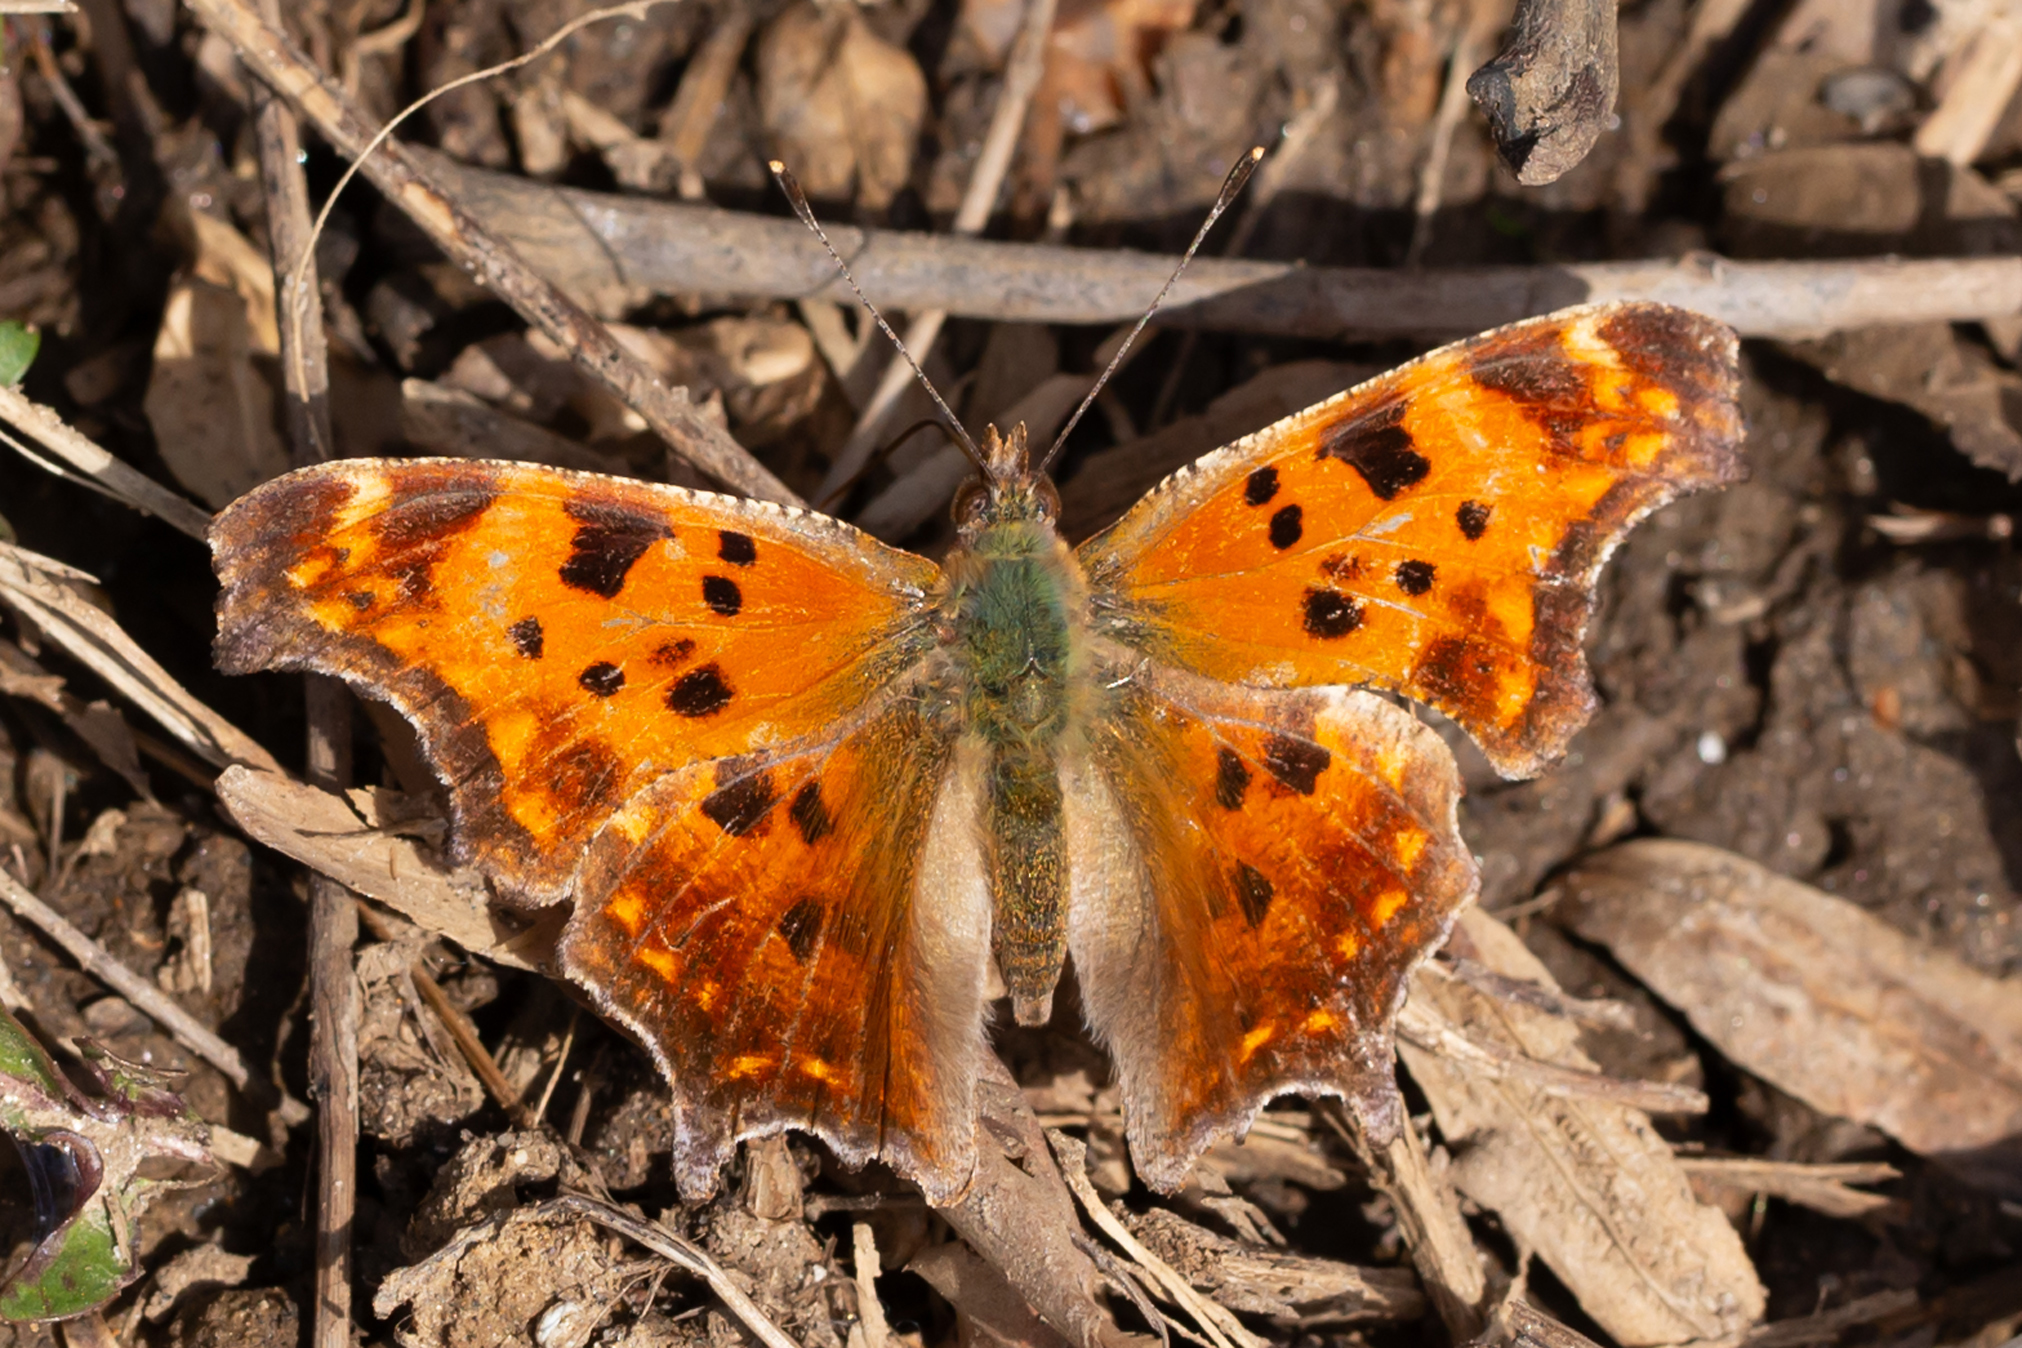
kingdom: Animalia
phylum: Arthropoda
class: Insecta
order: Lepidoptera
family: Nymphalidae
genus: Polygonia
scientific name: Polygonia comma
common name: Eastern comma
